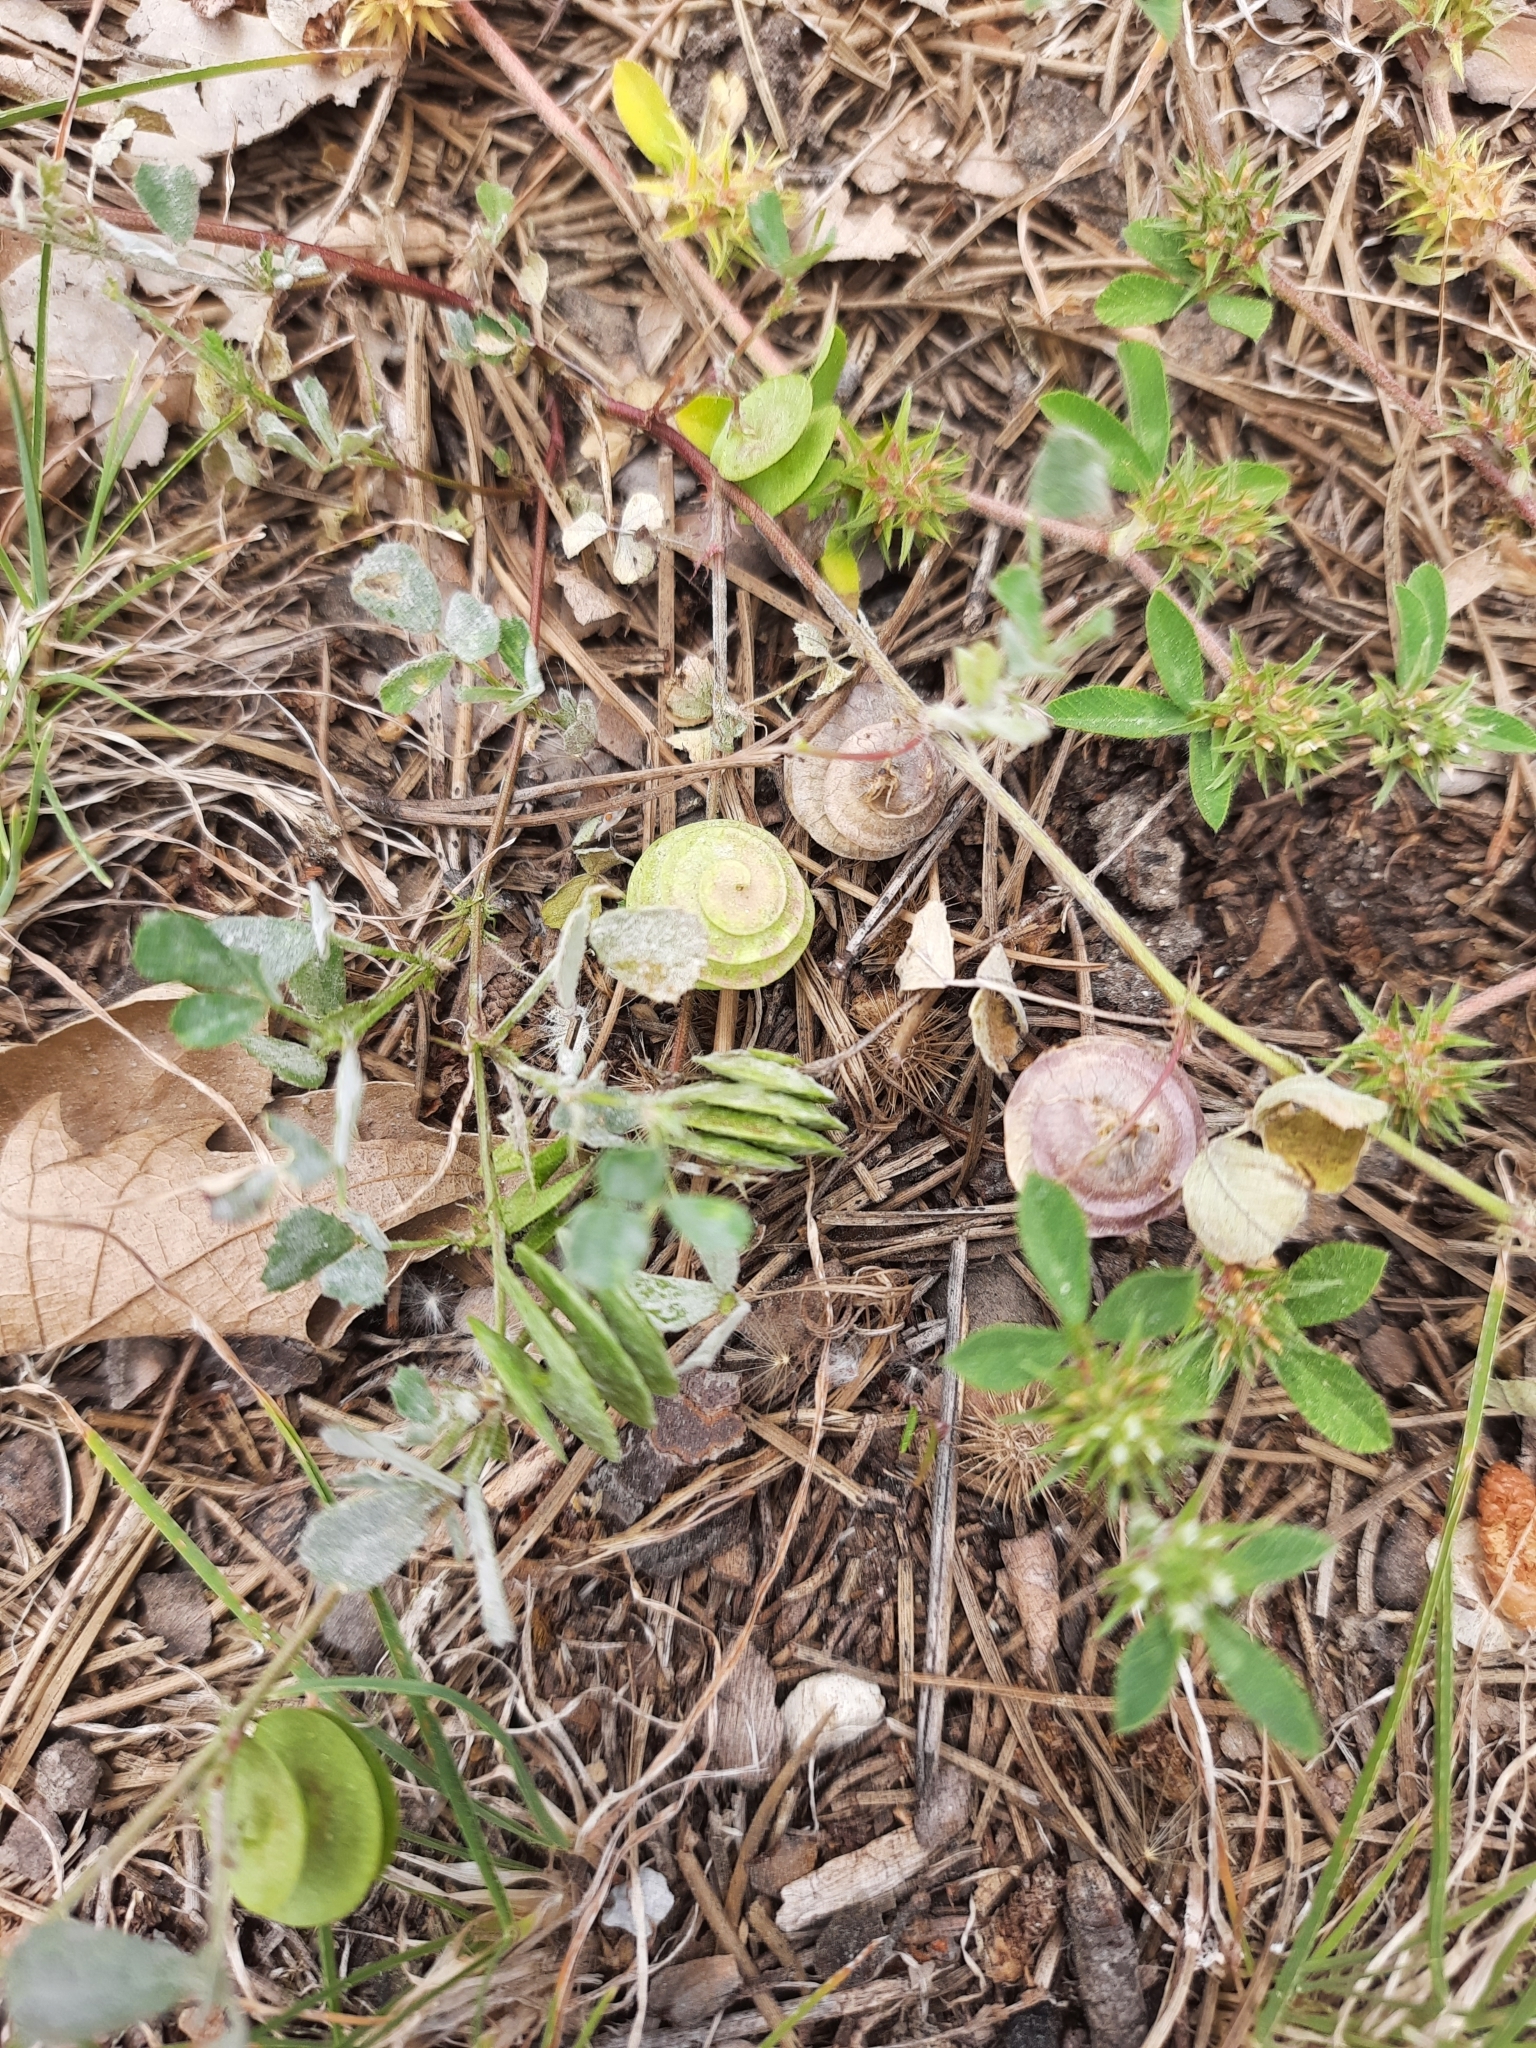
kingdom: Plantae
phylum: Tracheophyta
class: Magnoliopsida
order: Fabales
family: Fabaceae
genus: Medicago
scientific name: Medicago orbicularis
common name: Button medick
